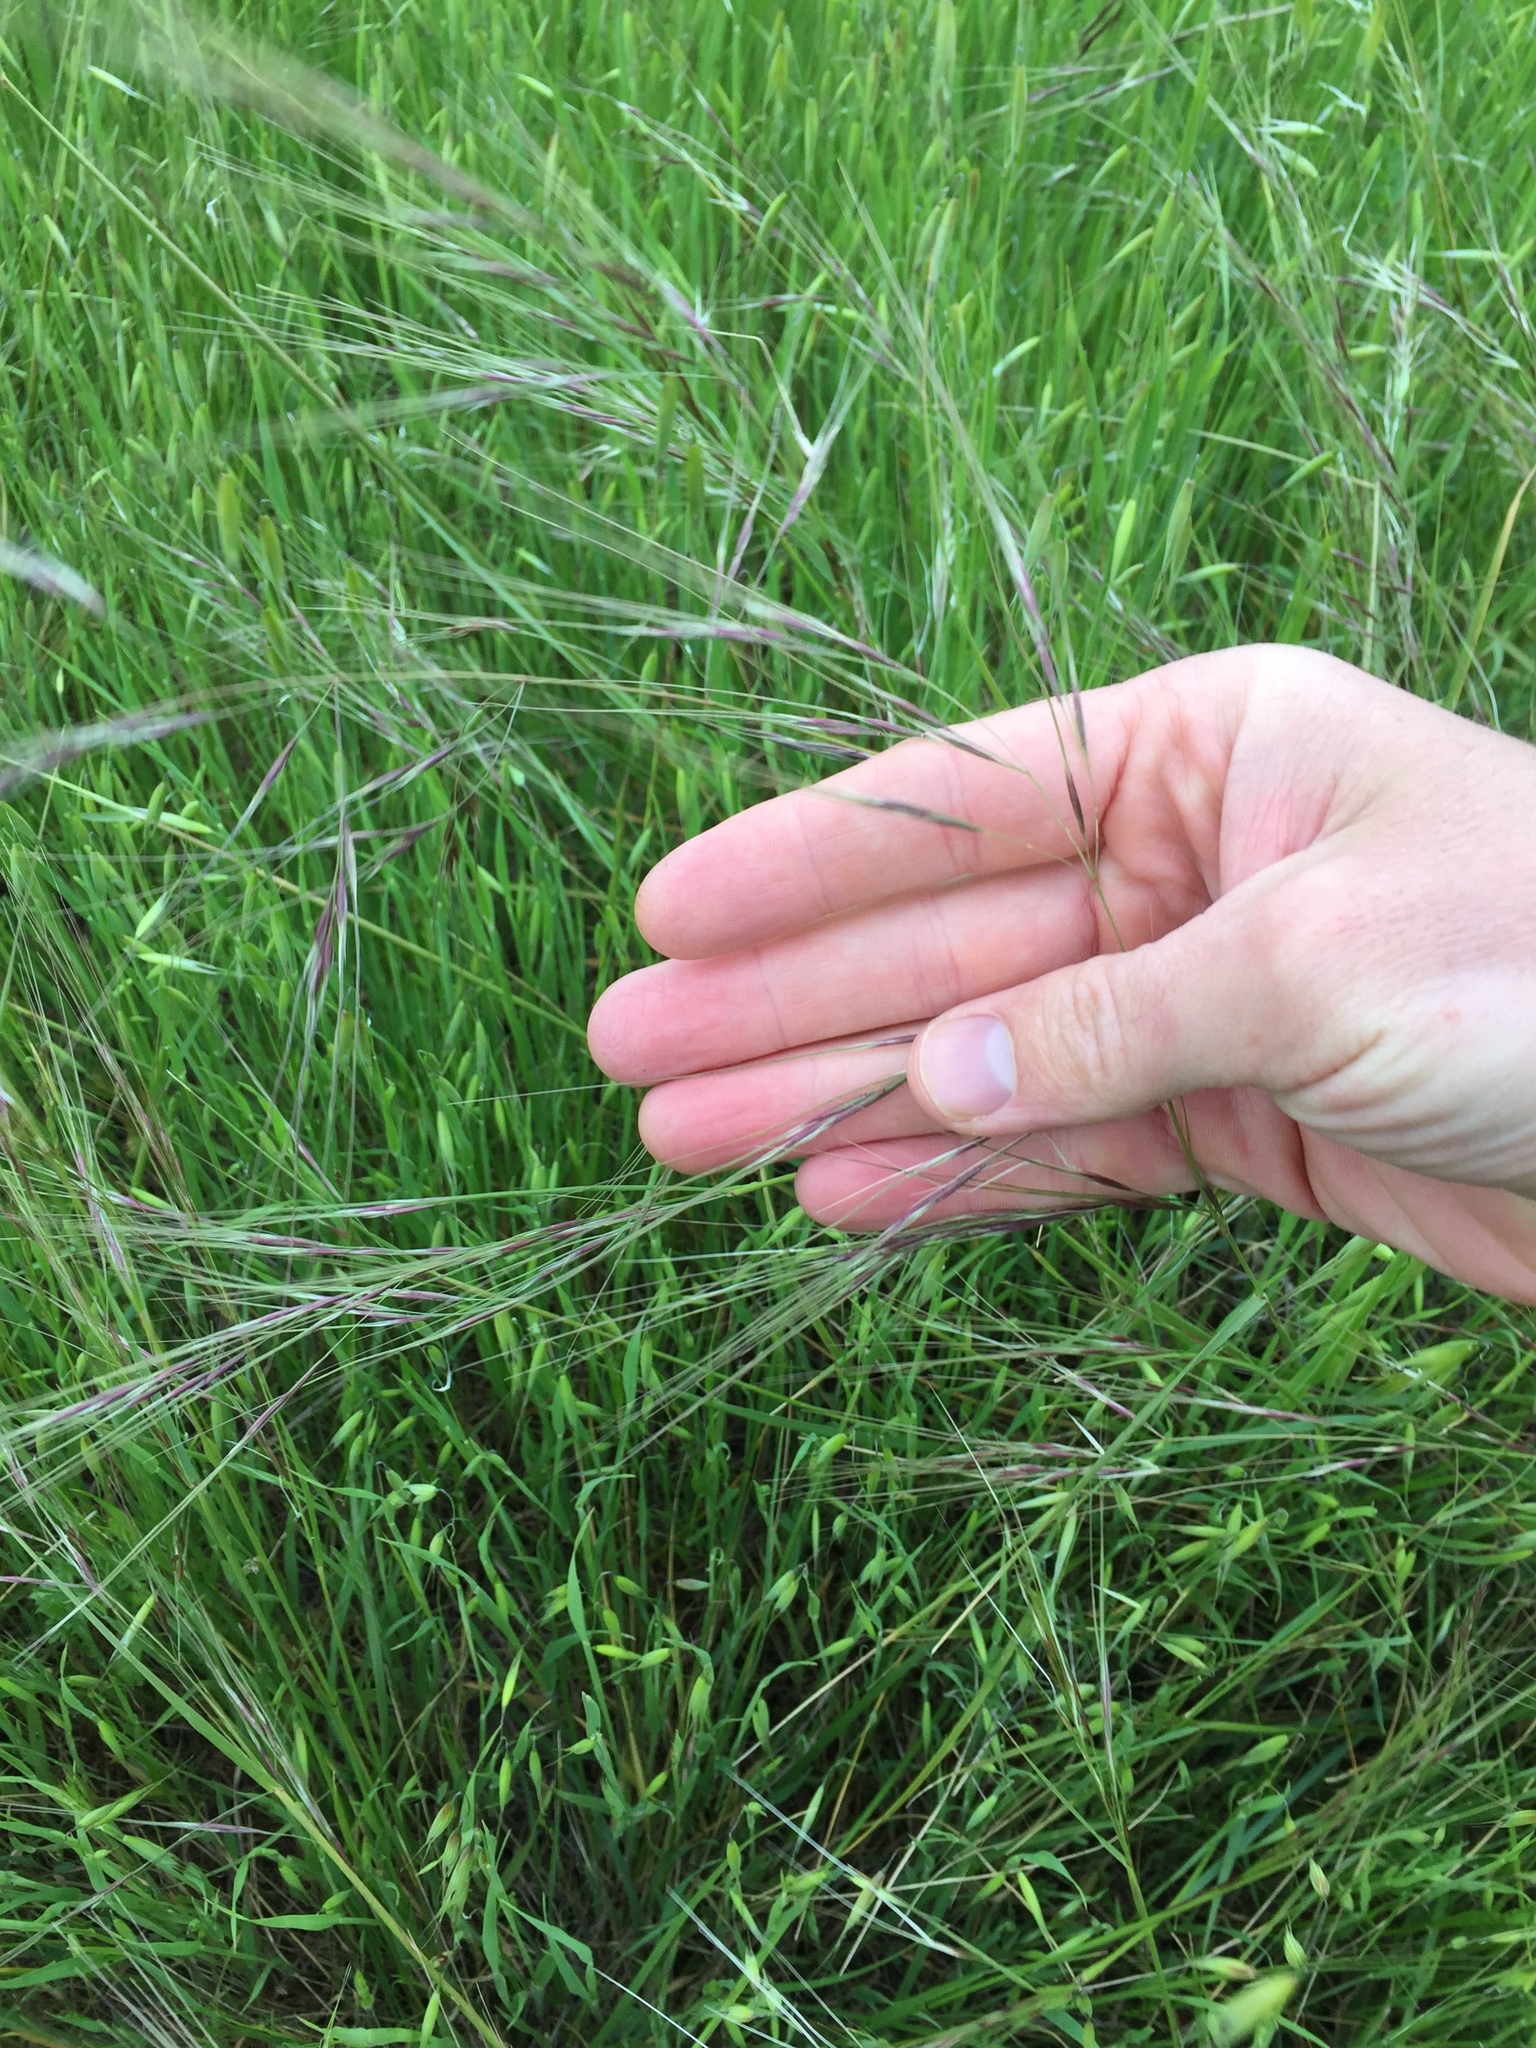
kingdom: Plantae
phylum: Tracheophyta
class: Liliopsida
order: Poales
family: Poaceae
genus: Nassella
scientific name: Nassella pulchra
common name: Purple needlegrass
